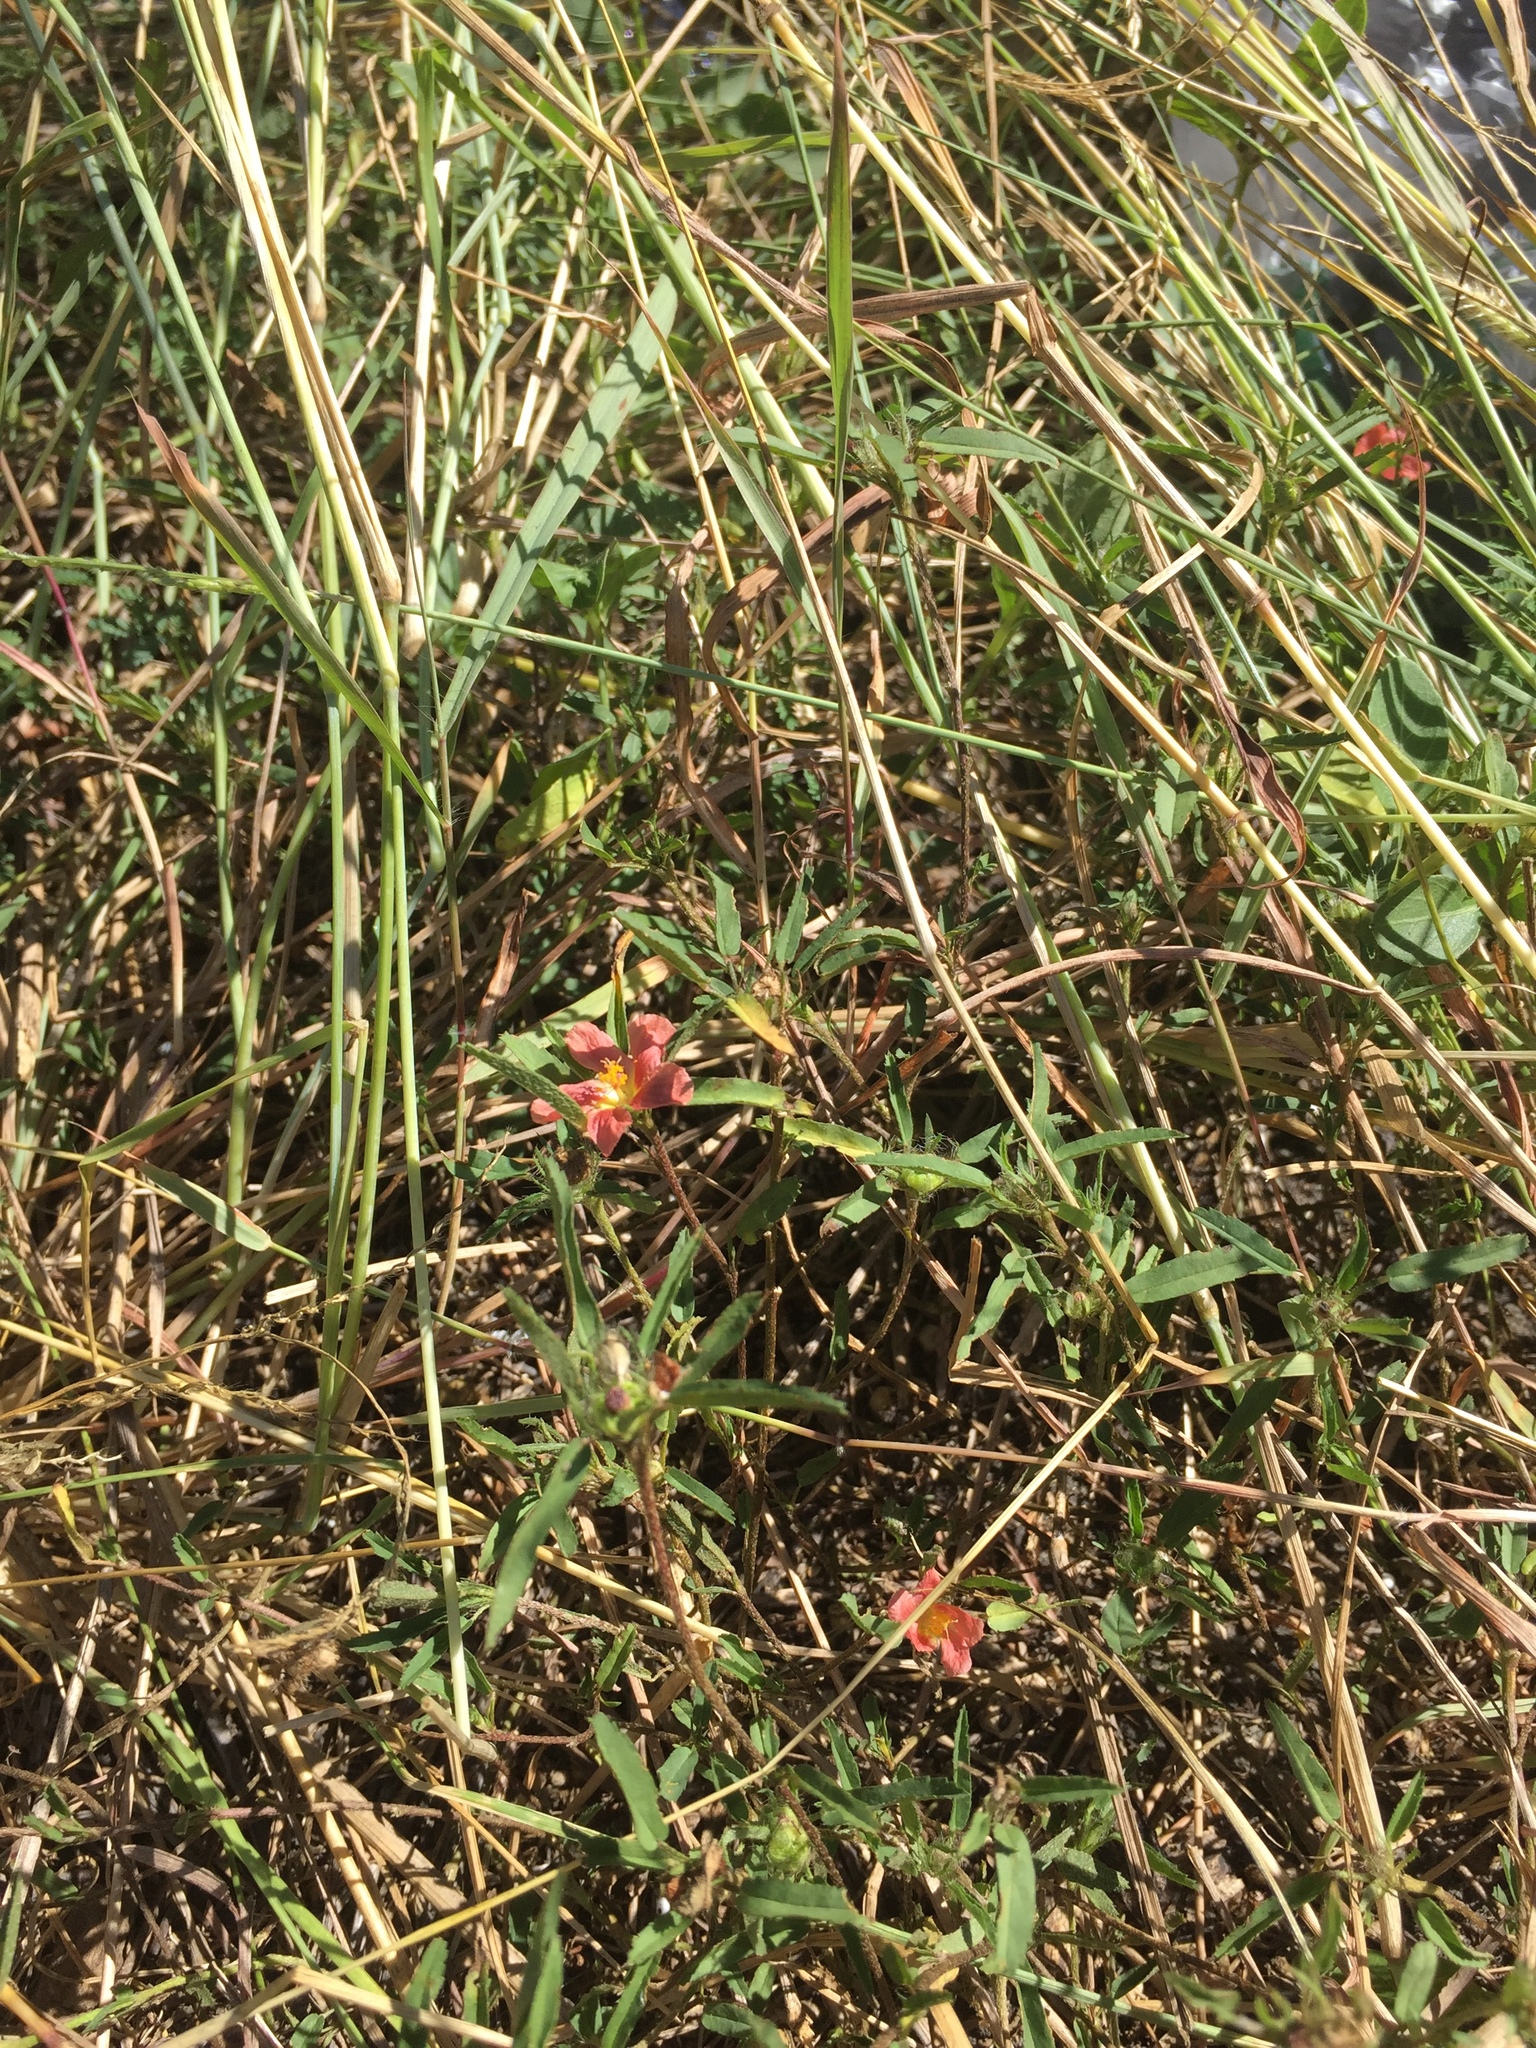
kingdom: Plantae
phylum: Tracheophyta
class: Magnoliopsida
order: Malvales
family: Malvaceae
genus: Sida
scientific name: Sida ciliaris
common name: Bracted fanpetals
